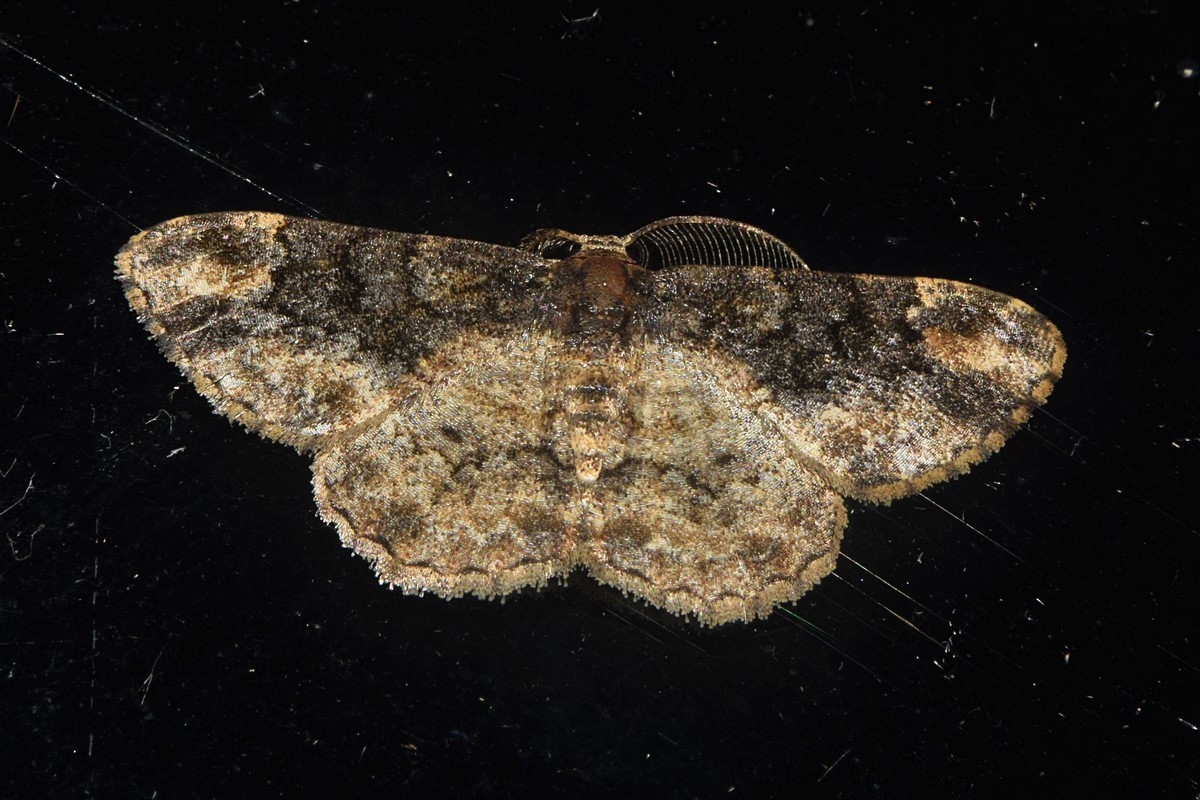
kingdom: Animalia
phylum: Arthropoda
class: Insecta
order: Lepidoptera
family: Geometridae
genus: Parapholodes
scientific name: Parapholodes
